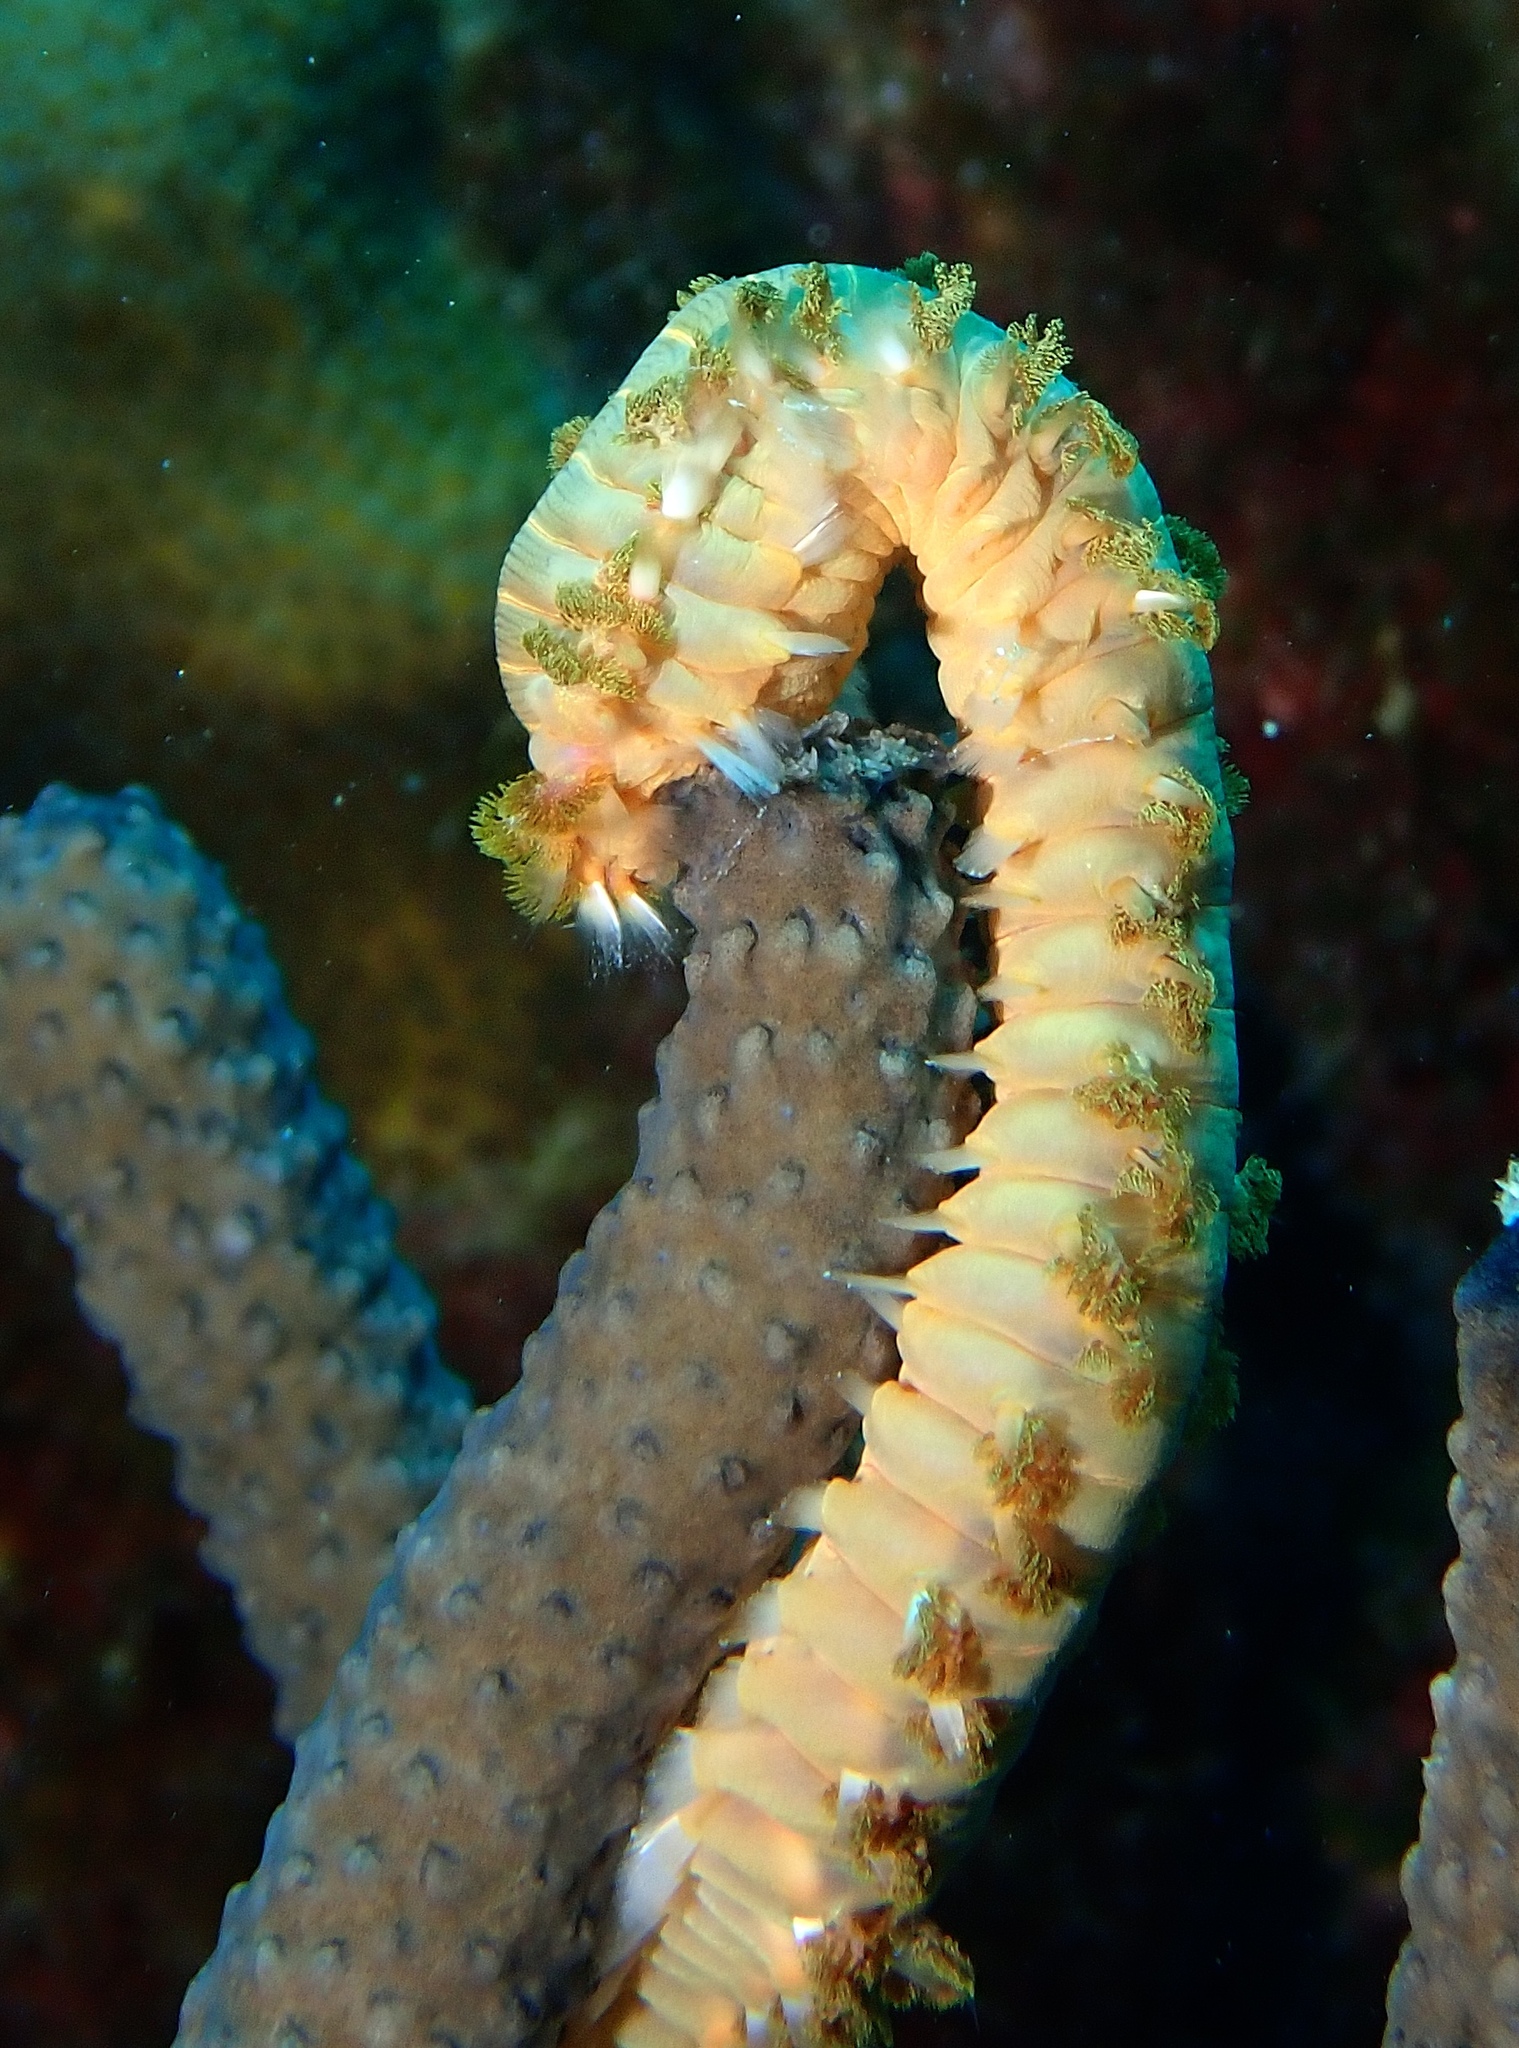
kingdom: Animalia
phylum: Annelida
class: Polychaeta
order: Amphinomida
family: Amphinomidae
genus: Hermodice
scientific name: Hermodice carunculata
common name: Bearded fireworm
